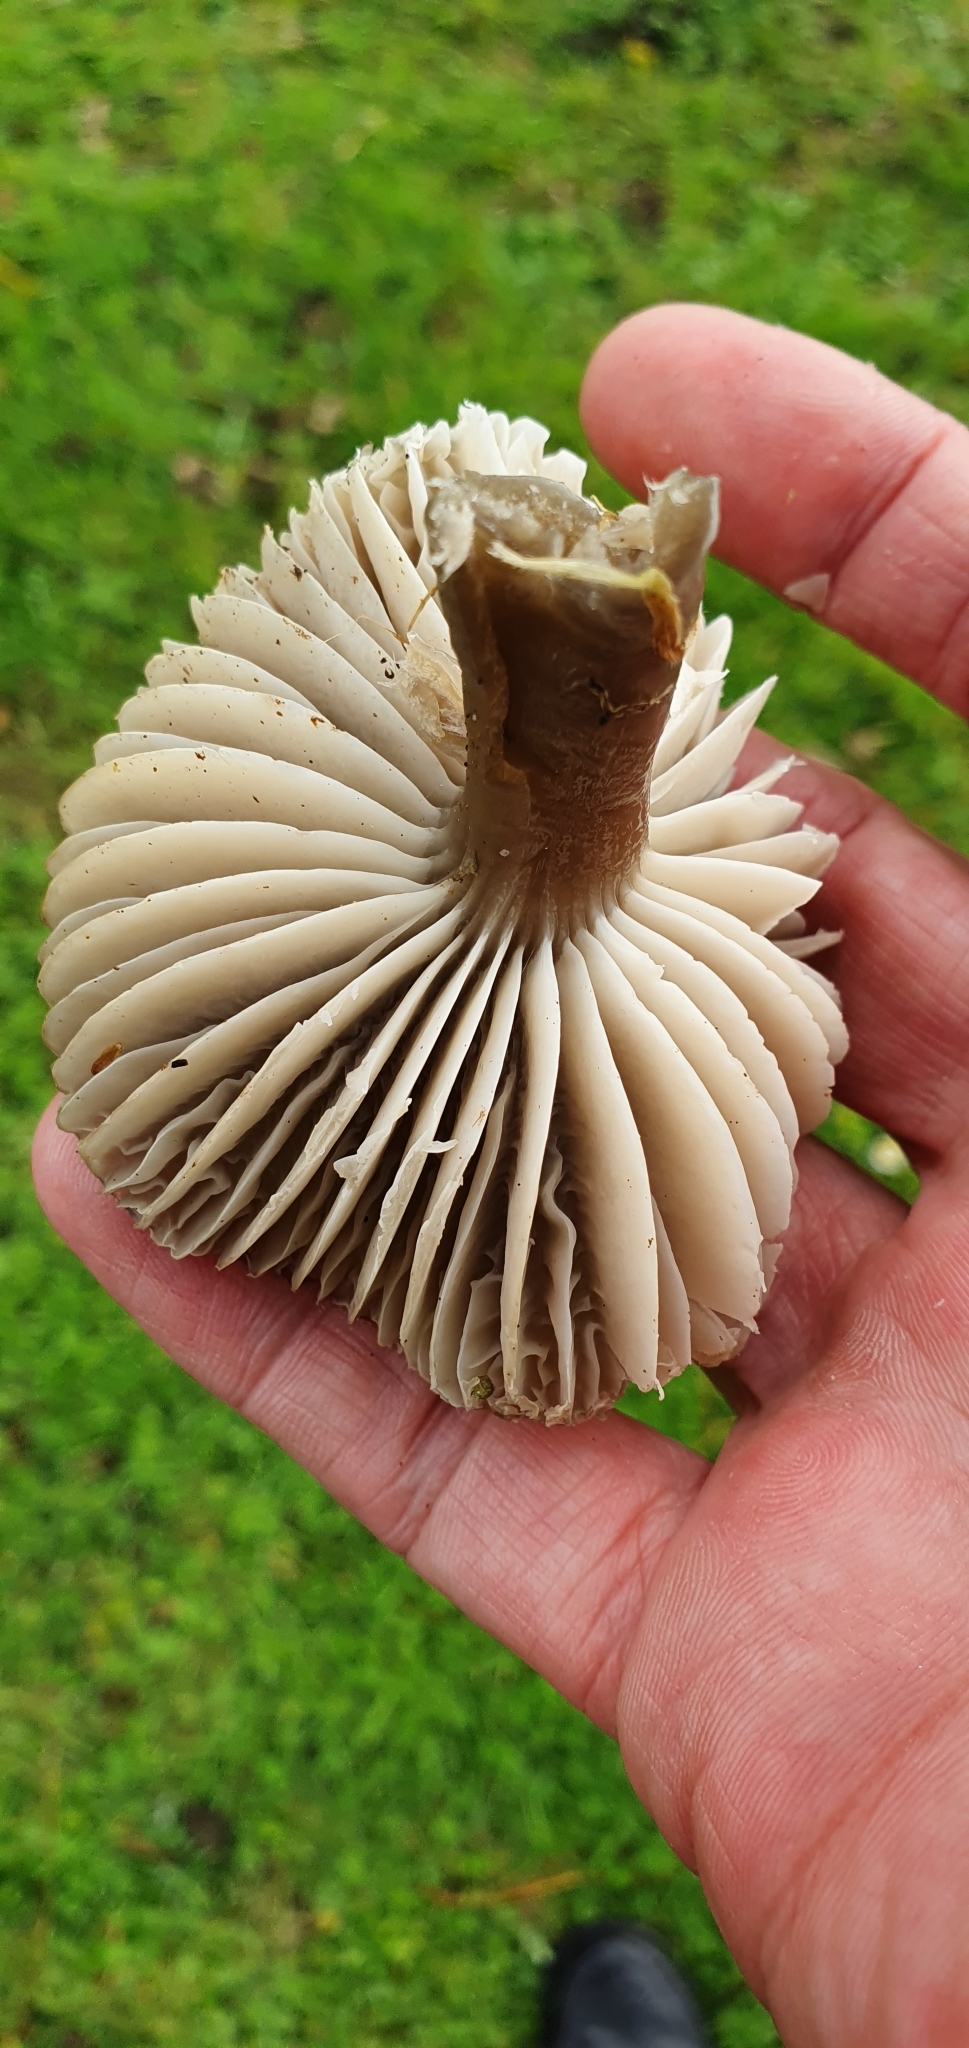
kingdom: Fungi
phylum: Basidiomycota
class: Agaricomycetes
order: Agaricales
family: Hygrophoraceae
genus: Gliophorus
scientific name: Gliophorus irrigatus
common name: Slimy waxcap
